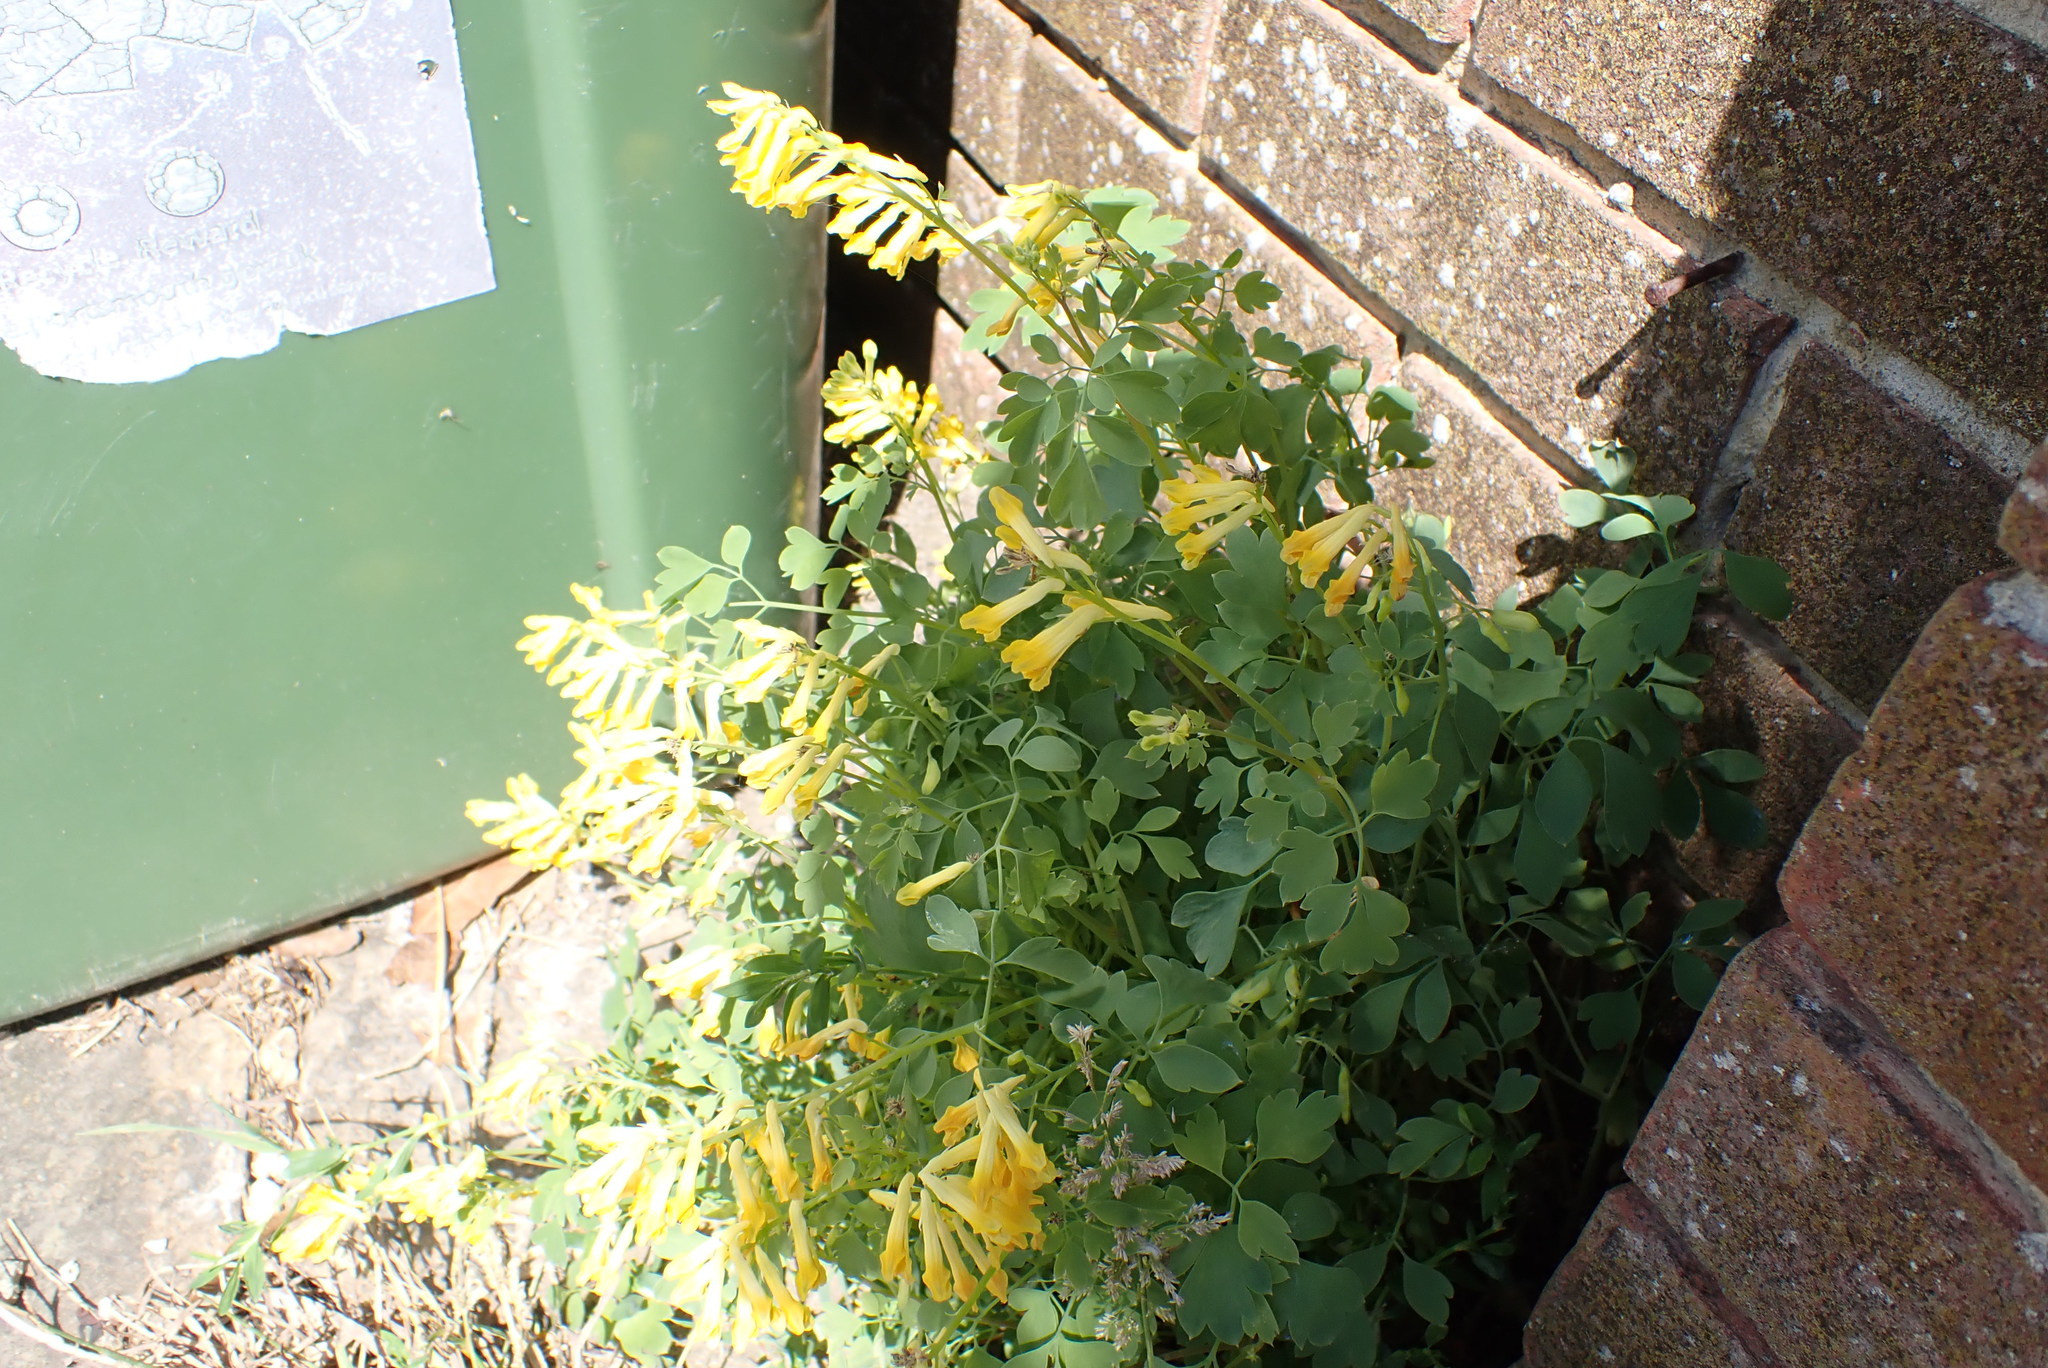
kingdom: Plantae
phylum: Tracheophyta
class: Magnoliopsida
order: Ranunculales
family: Papaveraceae
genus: Pseudofumaria
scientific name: Pseudofumaria lutea
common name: Yellow corydalis
